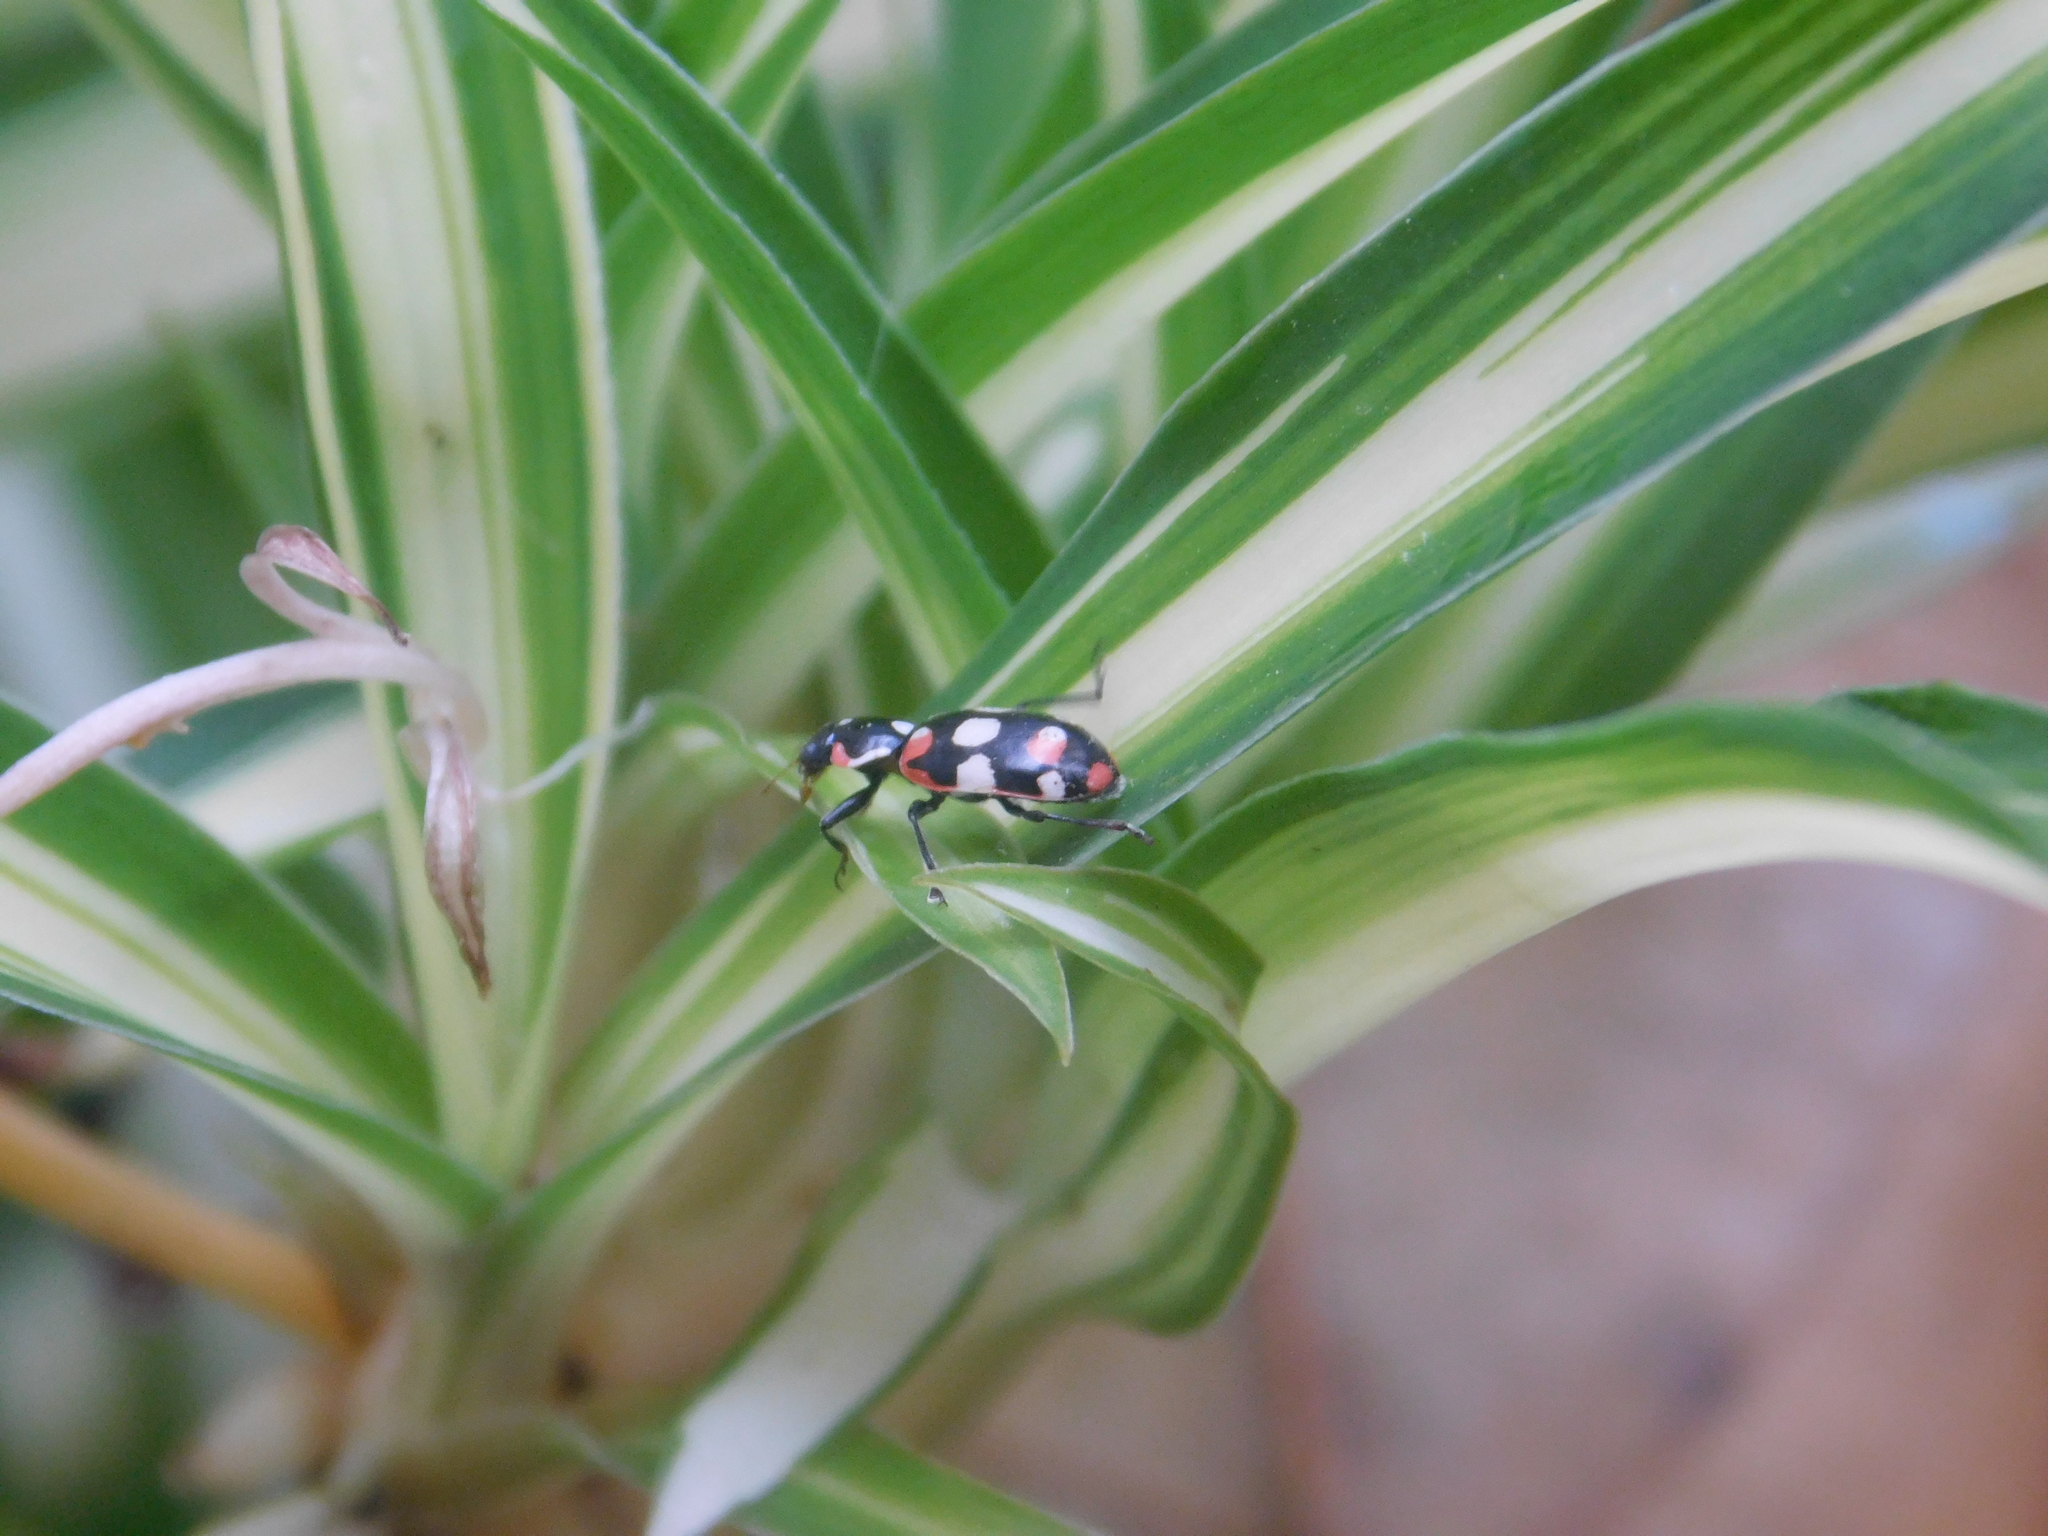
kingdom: Animalia
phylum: Arthropoda
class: Insecta
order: Coleoptera
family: Coccinellidae
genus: Eriopis
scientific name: Eriopis connexa
